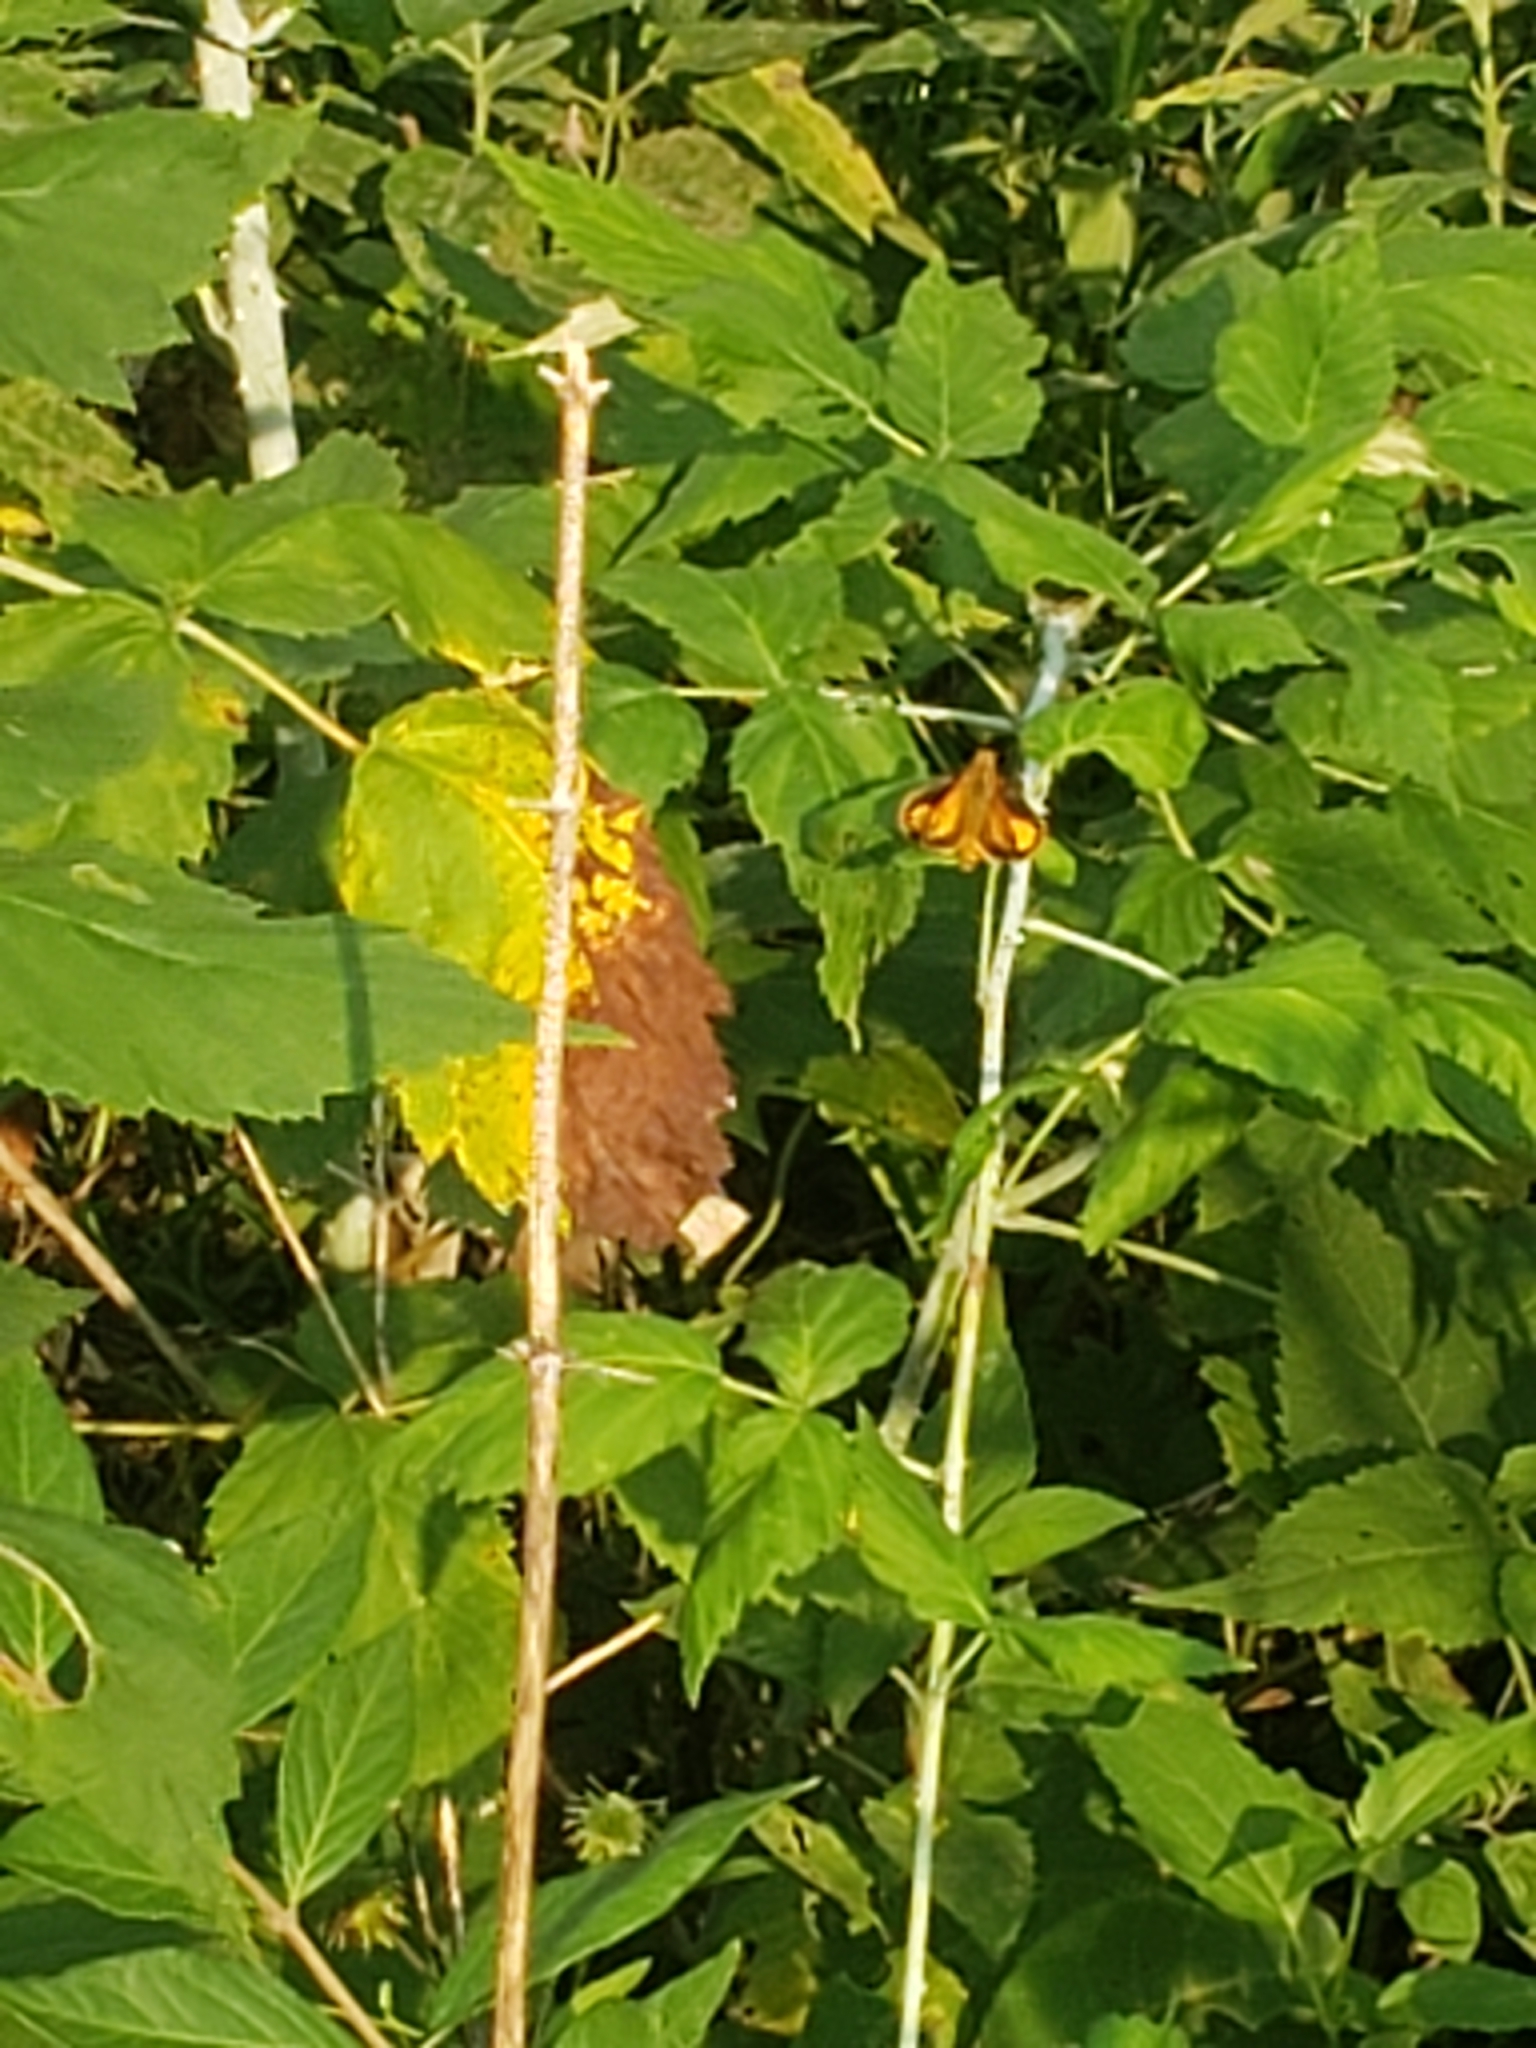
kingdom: Animalia
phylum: Arthropoda
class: Insecta
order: Lepidoptera
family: Hesperiidae
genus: Lon
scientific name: Lon zabulon
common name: Zabulon skipper
